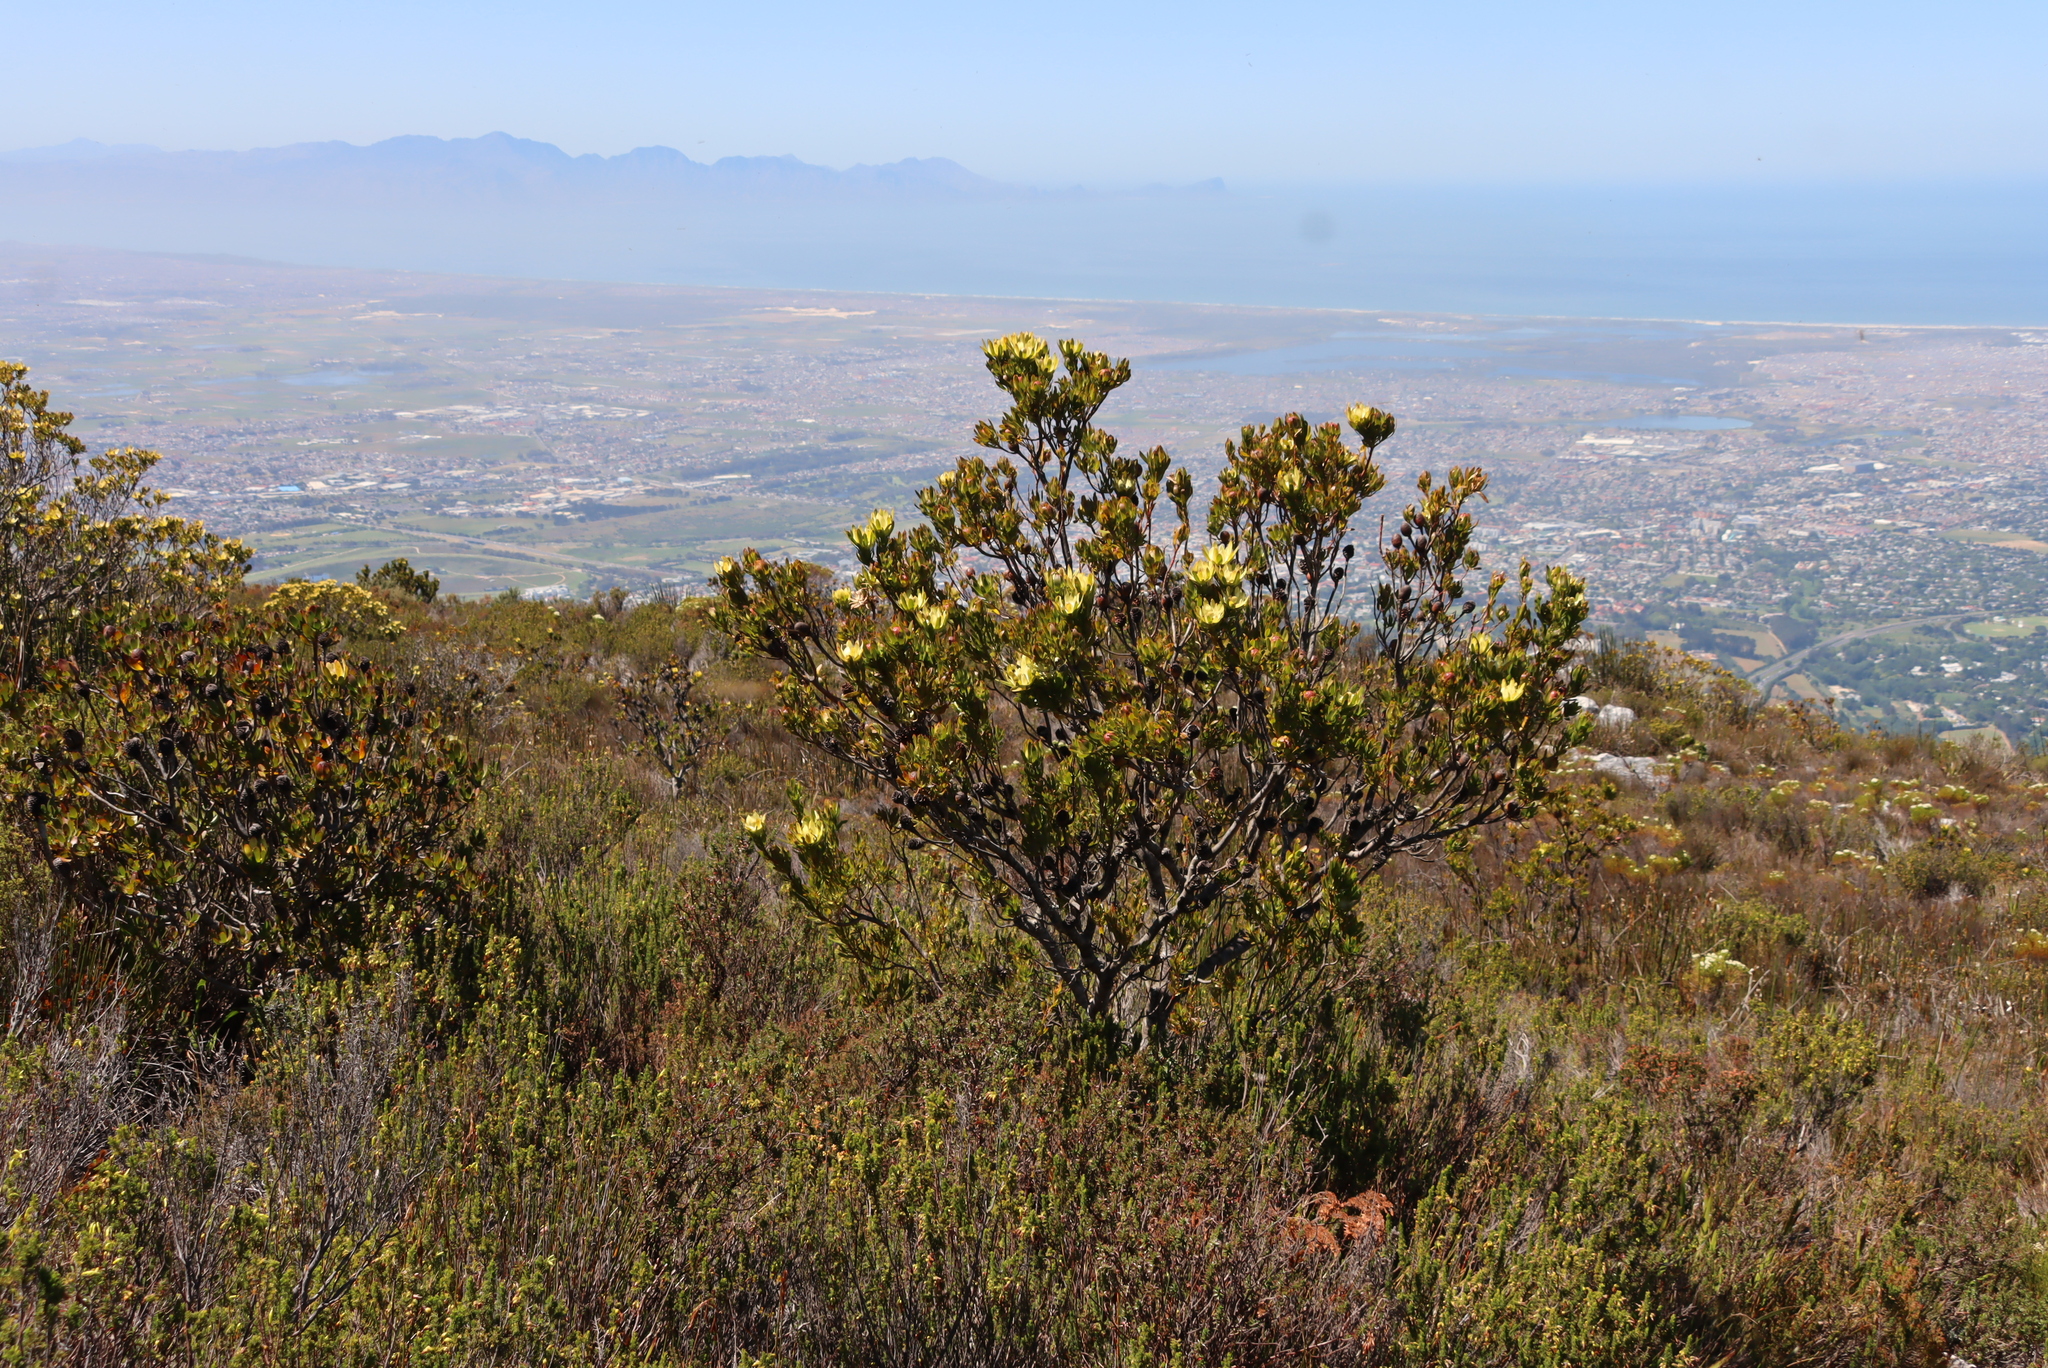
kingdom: Plantae
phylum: Tracheophyta
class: Magnoliopsida
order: Proteales
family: Proteaceae
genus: Leucadendron
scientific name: Leucadendron strobilinum
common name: Mountain rose
